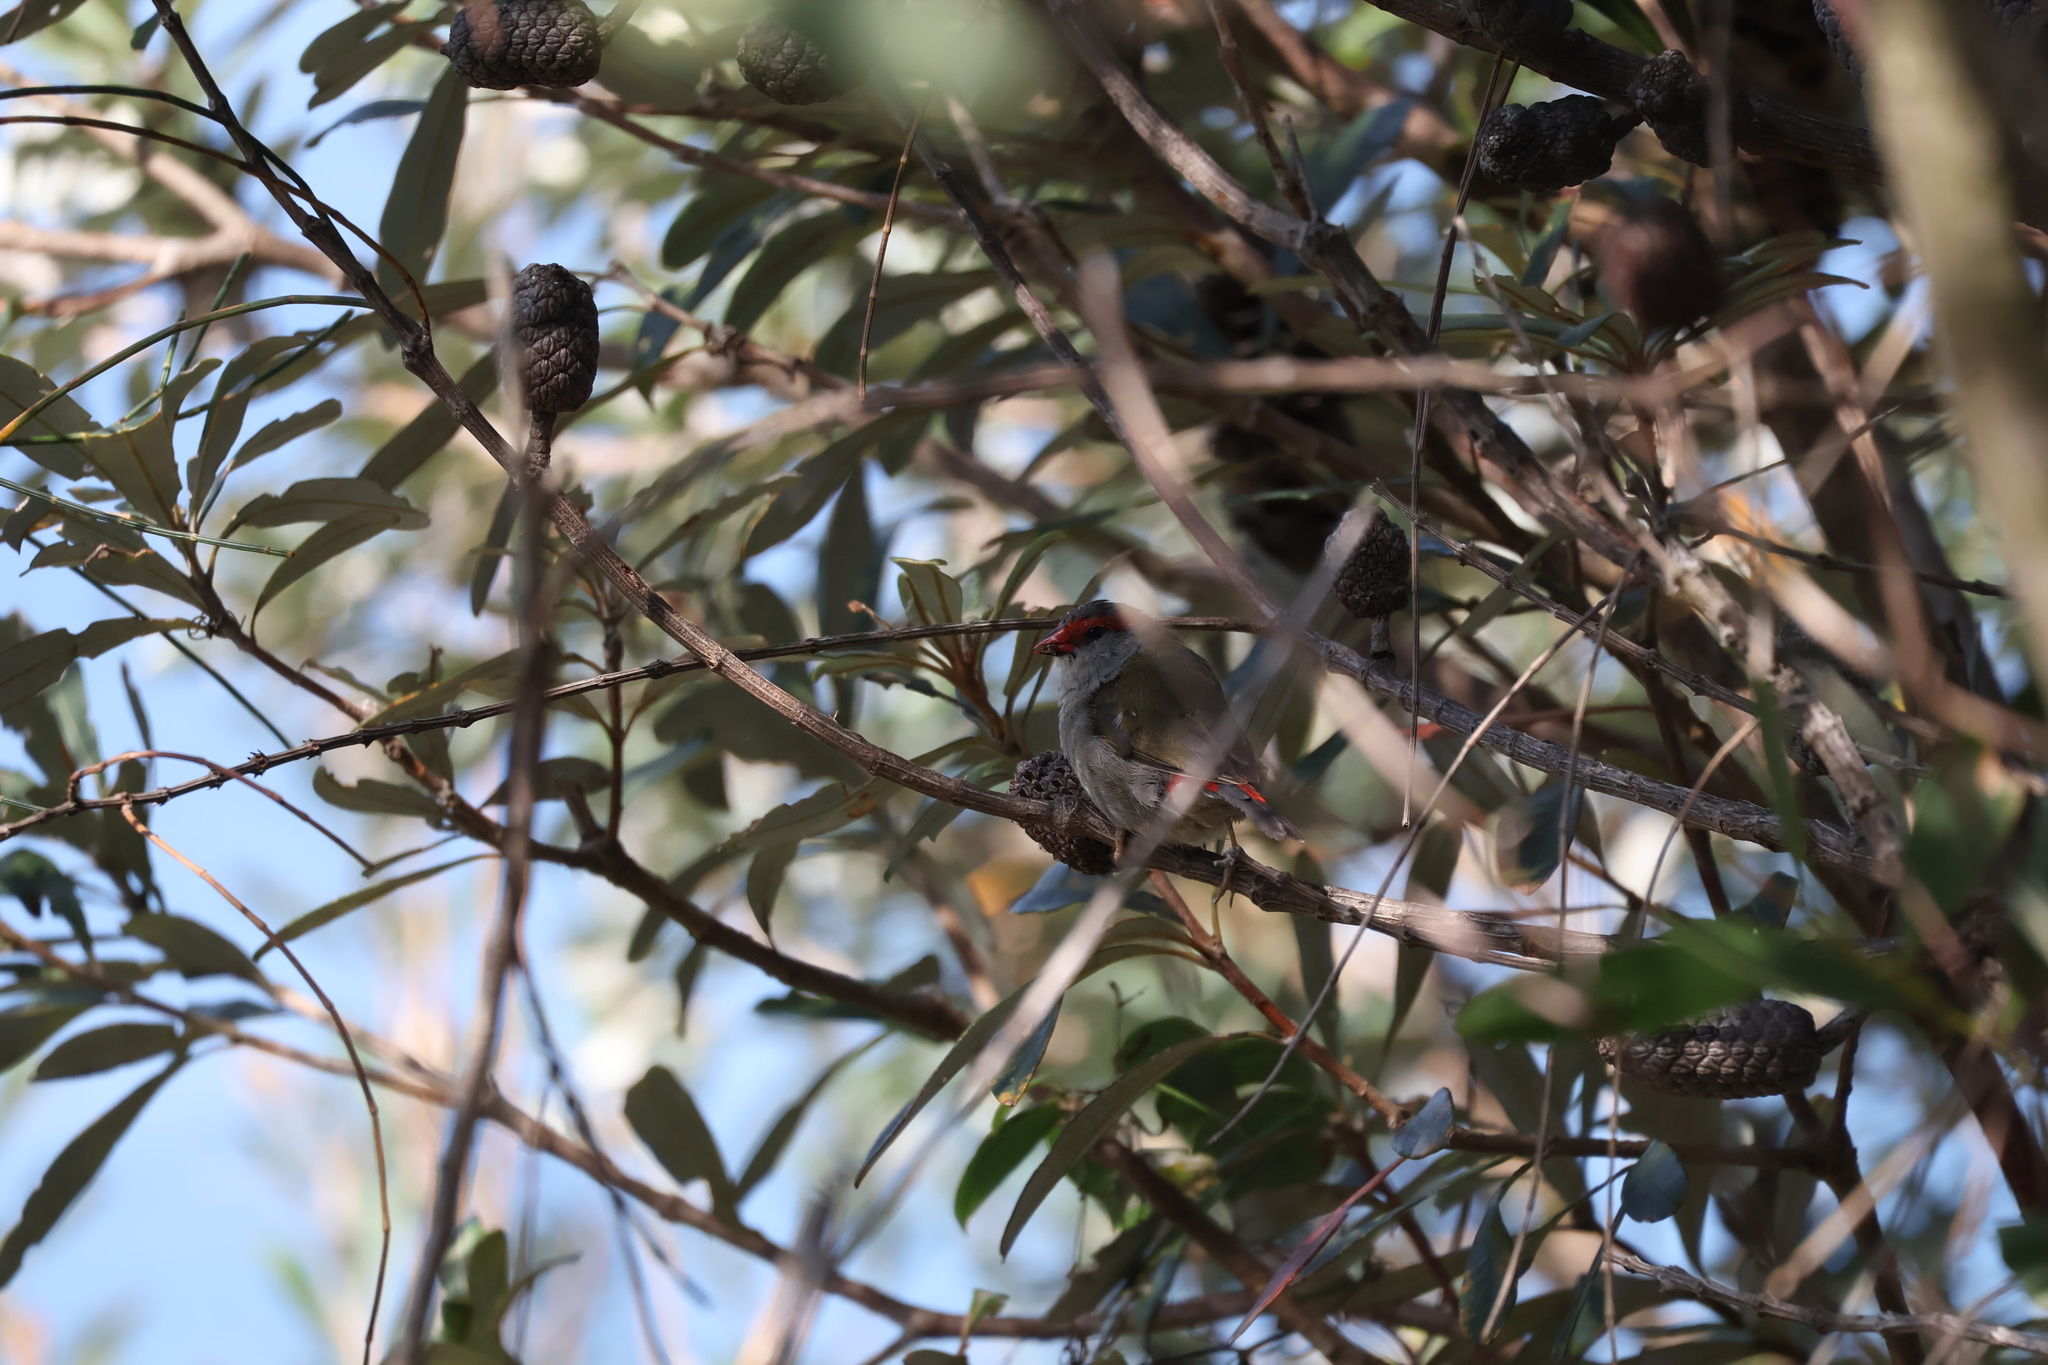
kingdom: Animalia
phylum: Chordata
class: Aves
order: Passeriformes
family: Estrildidae
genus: Neochmia
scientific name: Neochmia temporalis
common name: Red-browed finch
